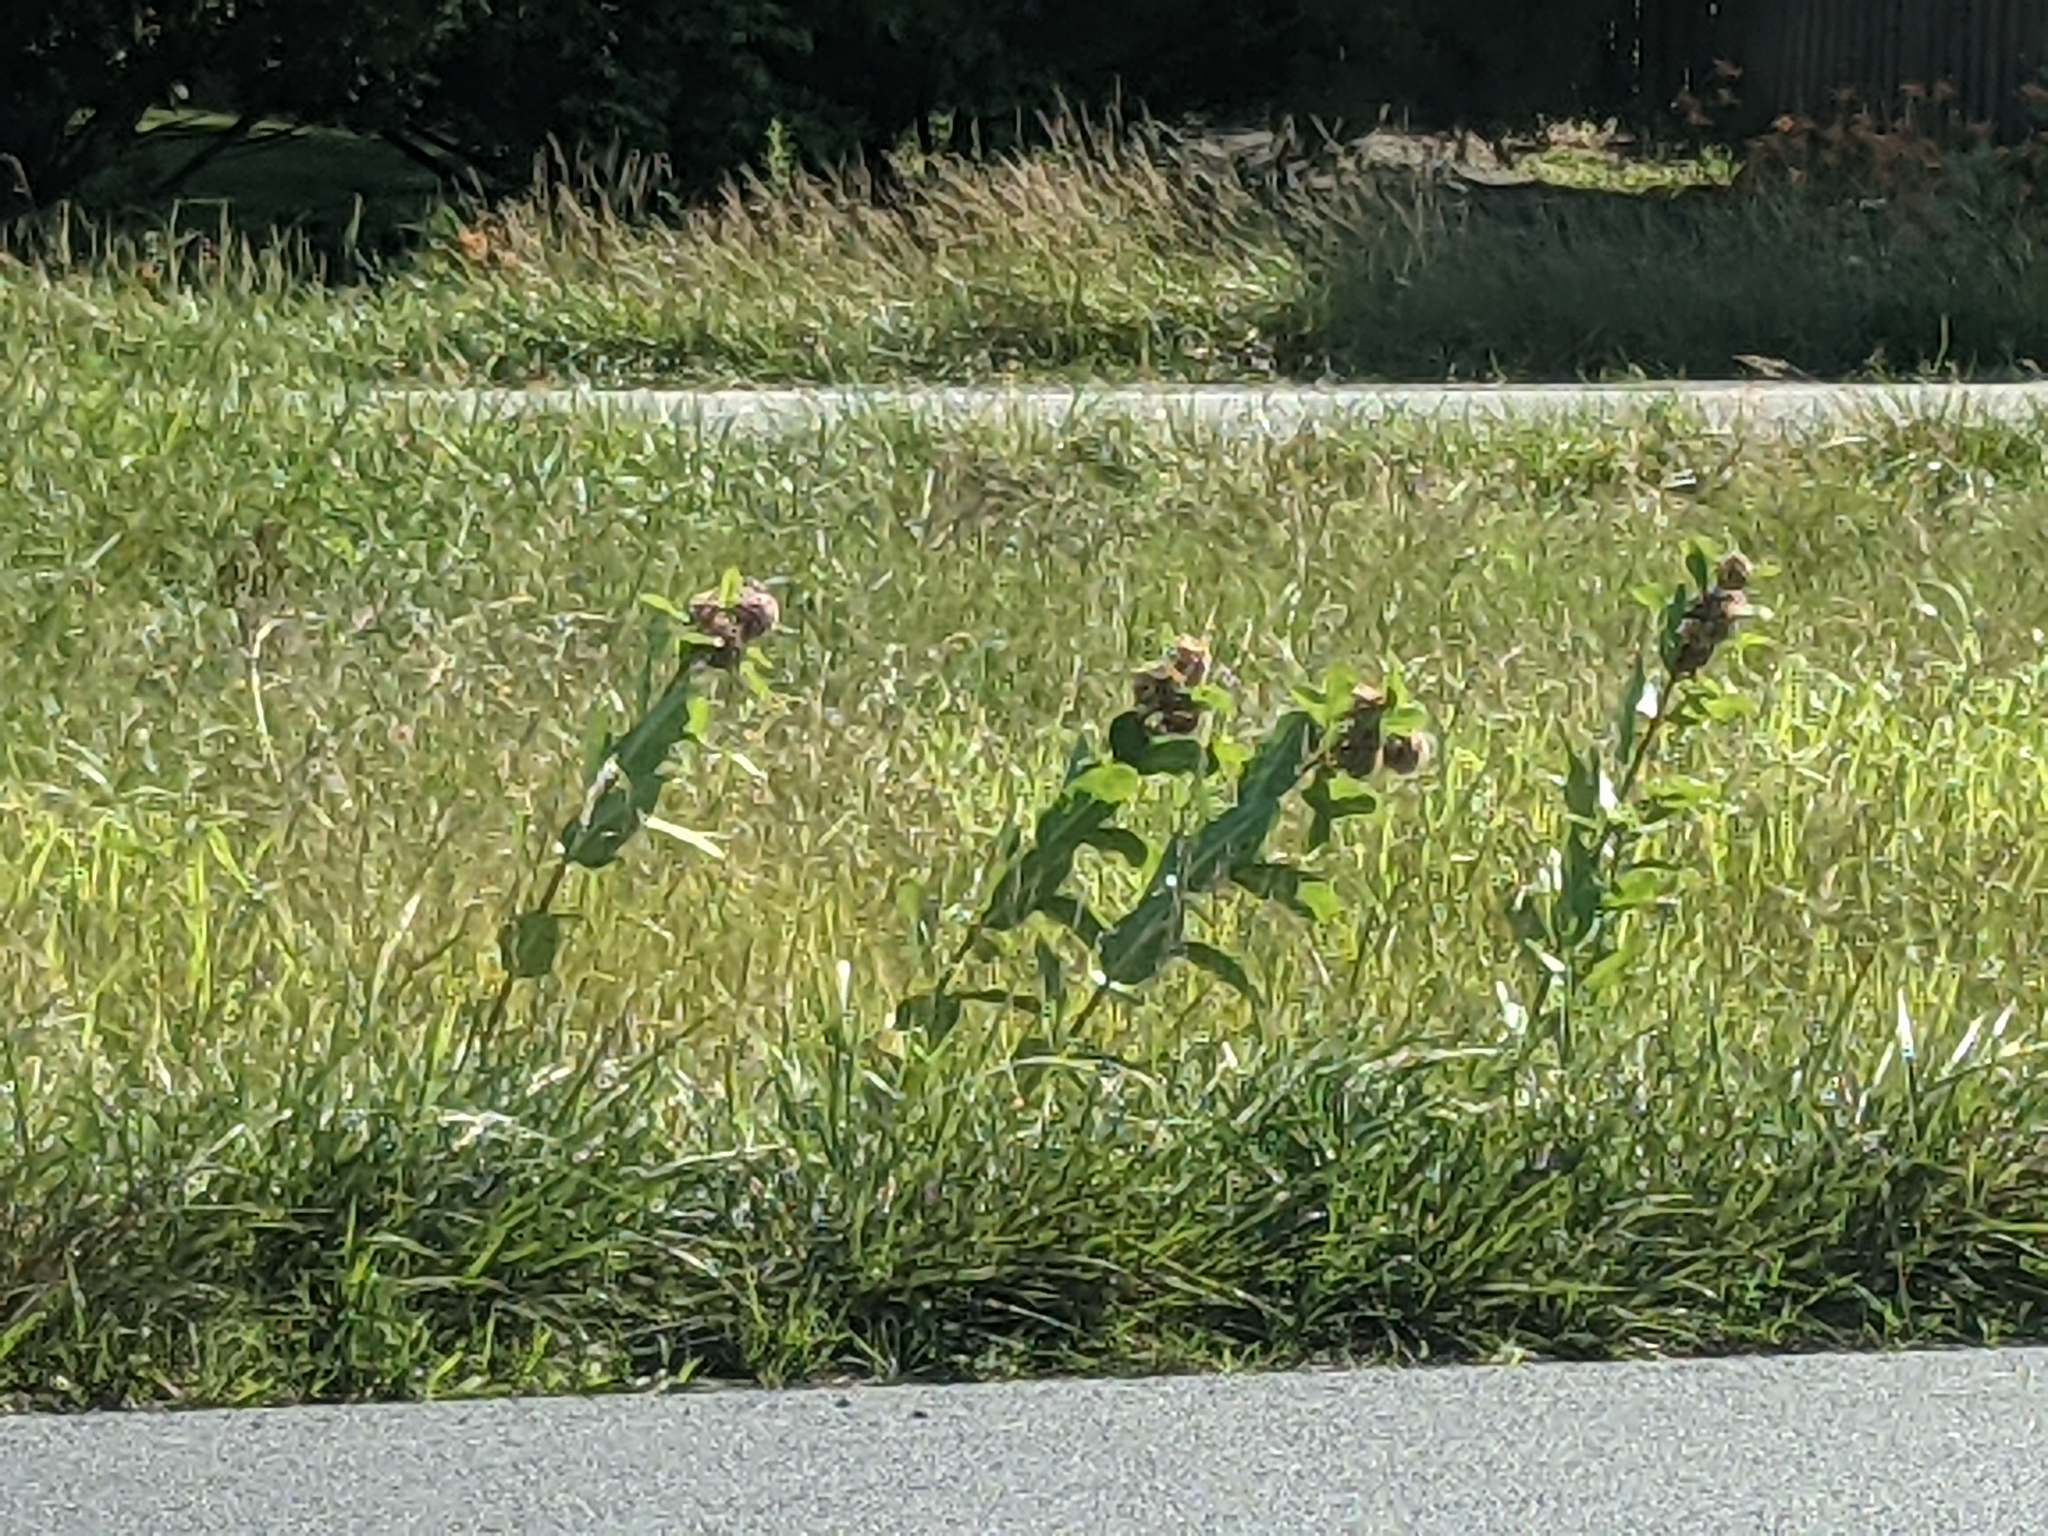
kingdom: Plantae
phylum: Tracheophyta
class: Magnoliopsida
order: Gentianales
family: Apocynaceae
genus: Asclepias
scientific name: Asclepias syriaca
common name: Common milkweed
